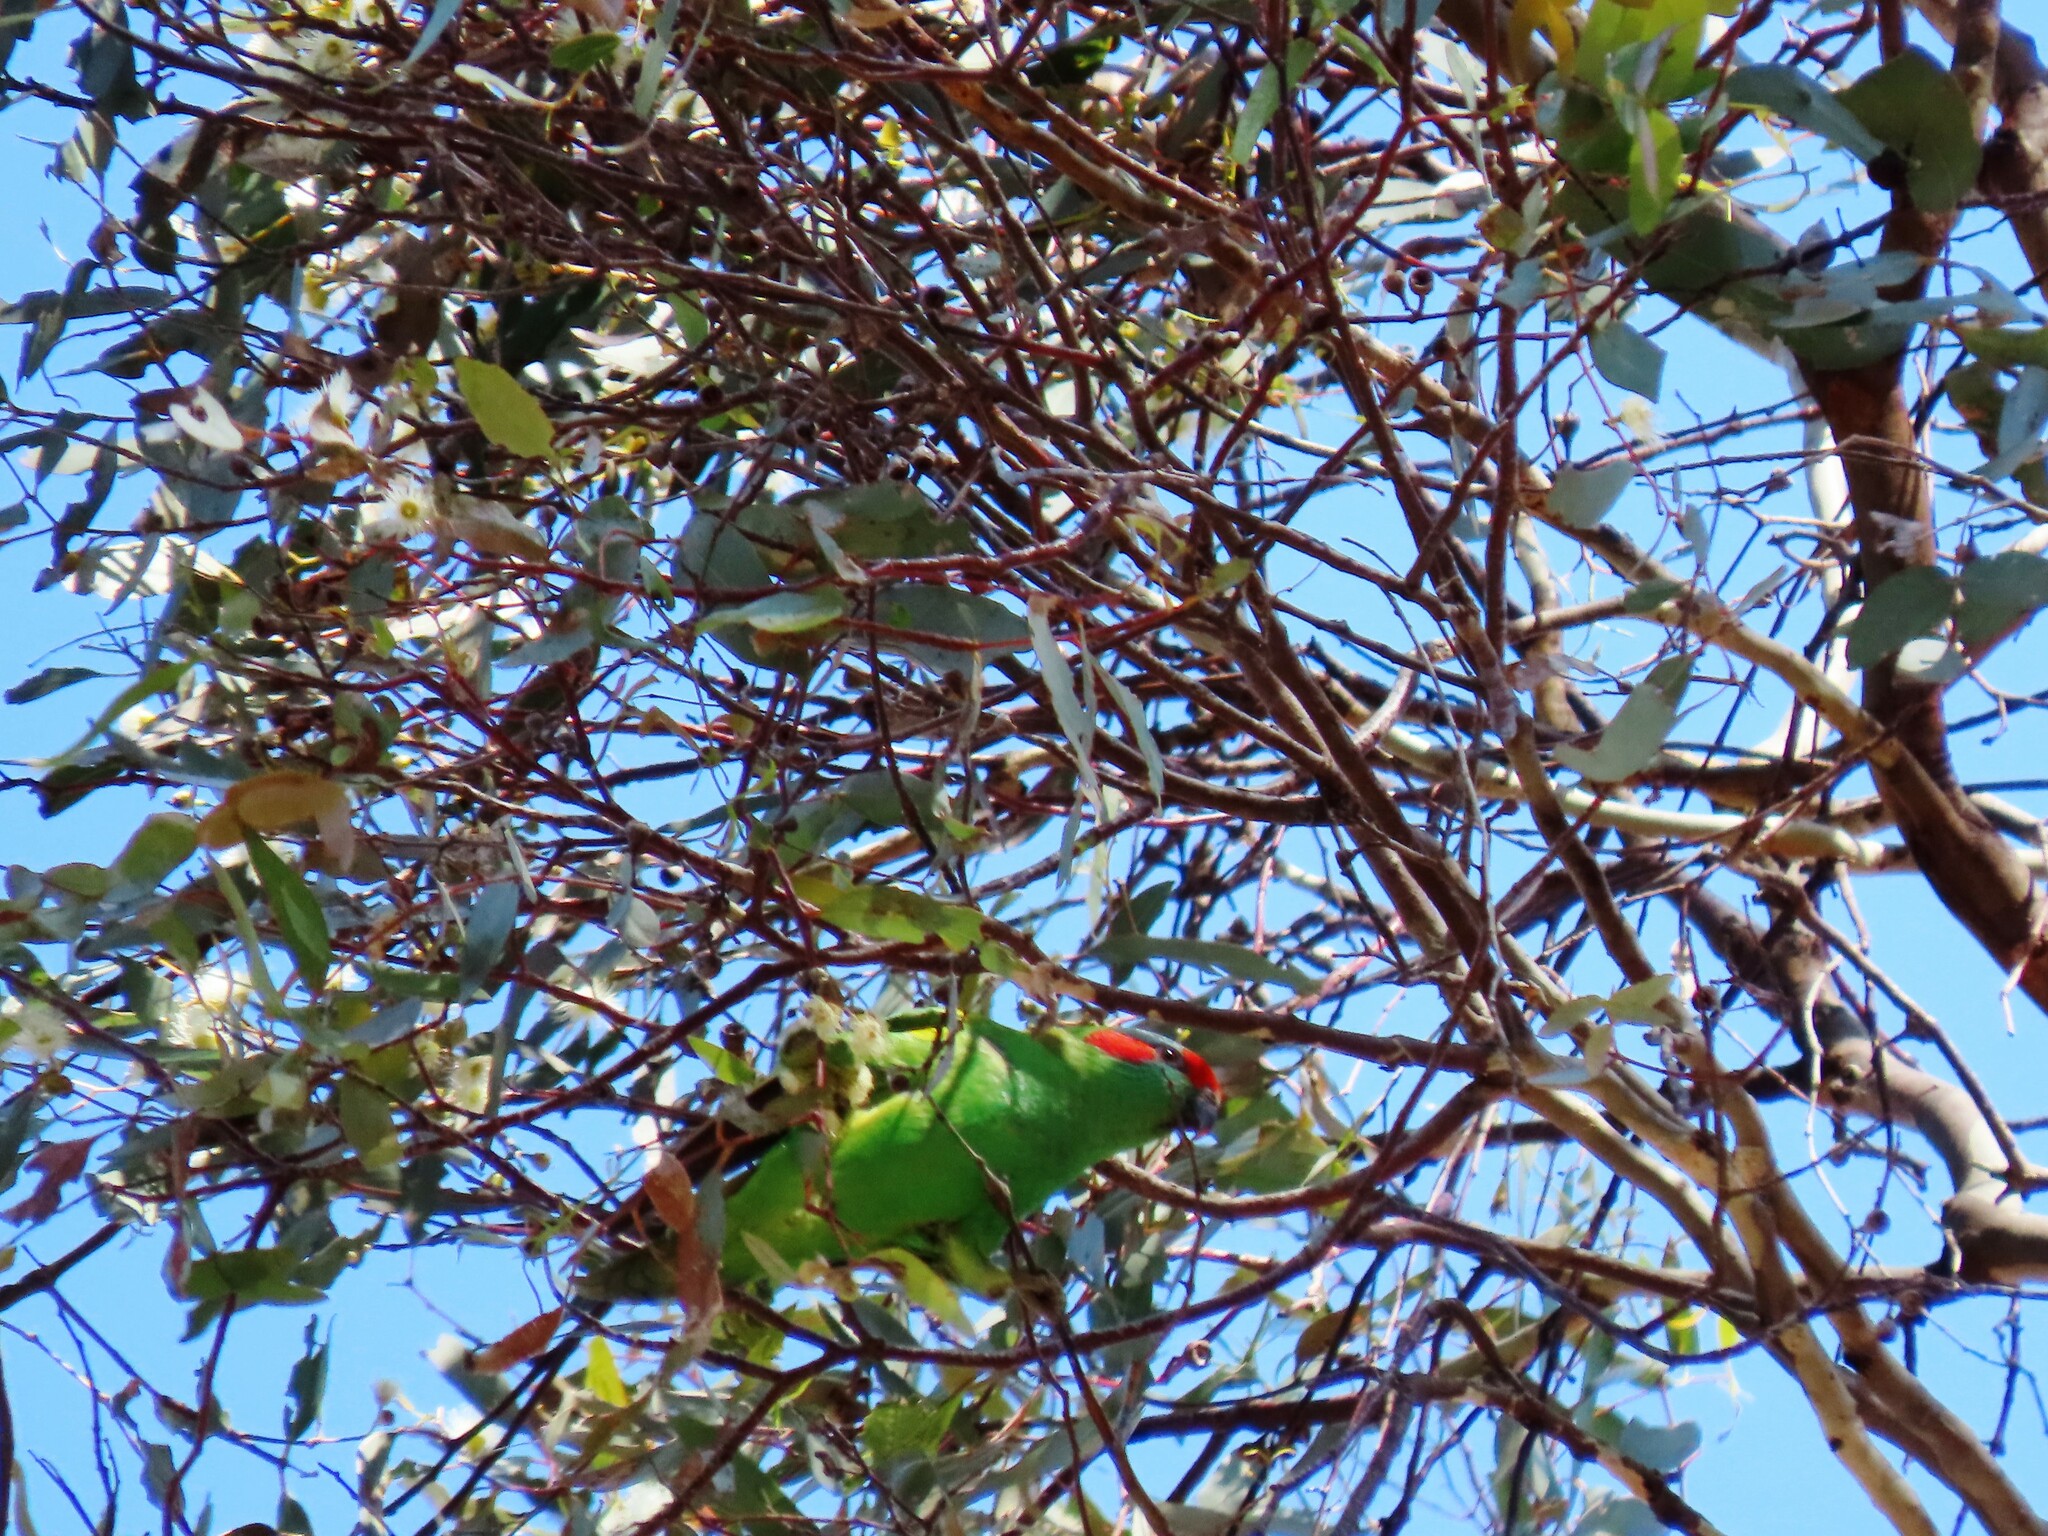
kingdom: Animalia
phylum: Chordata
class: Aves
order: Psittaciformes
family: Psittacidae
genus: Glossopsitta
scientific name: Glossopsitta concinna
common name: Musk lorikeet
